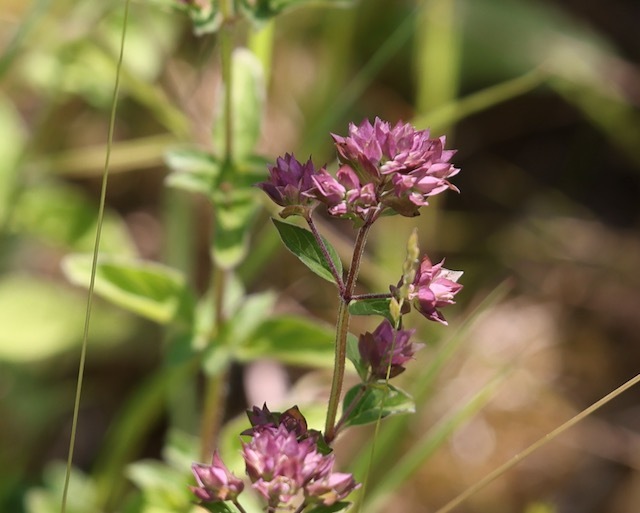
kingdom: Plantae
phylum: Tracheophyta
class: Magnoliopsida
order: Lamiales
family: Lamiaceae
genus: Origanum
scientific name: Origanum vulgare
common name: Wild marjoram
